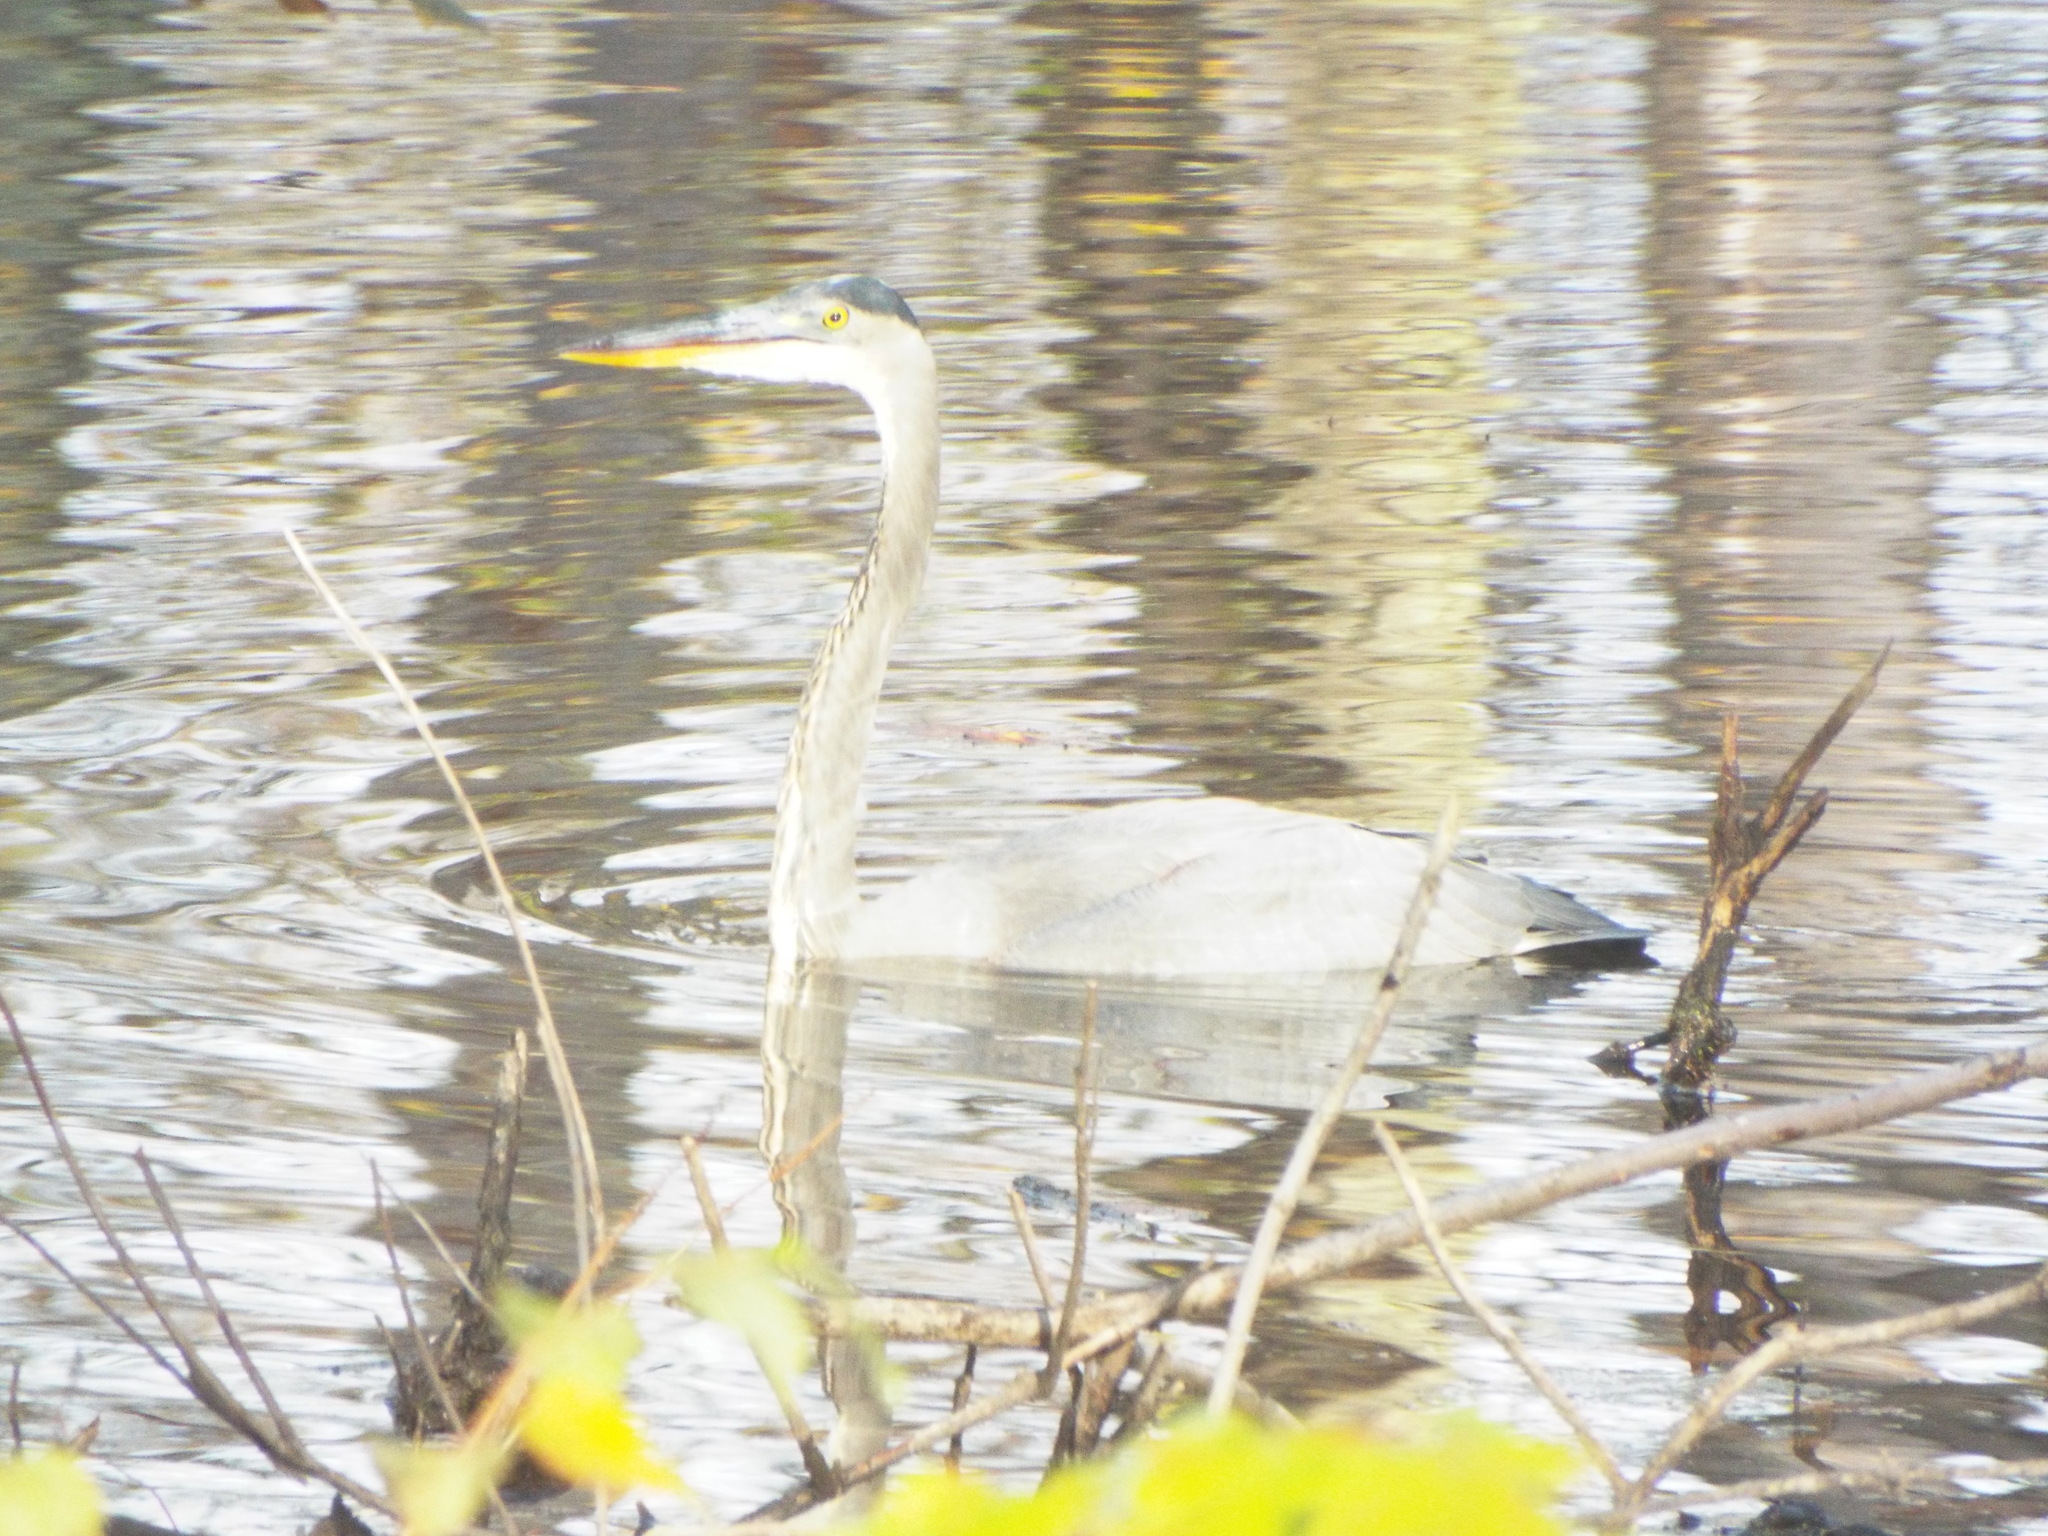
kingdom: Animalia
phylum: Chordata
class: Aves
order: Pelecaniformes
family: Ardeidae
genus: Ardea
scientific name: Ardea herodias
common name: Great blue heron
